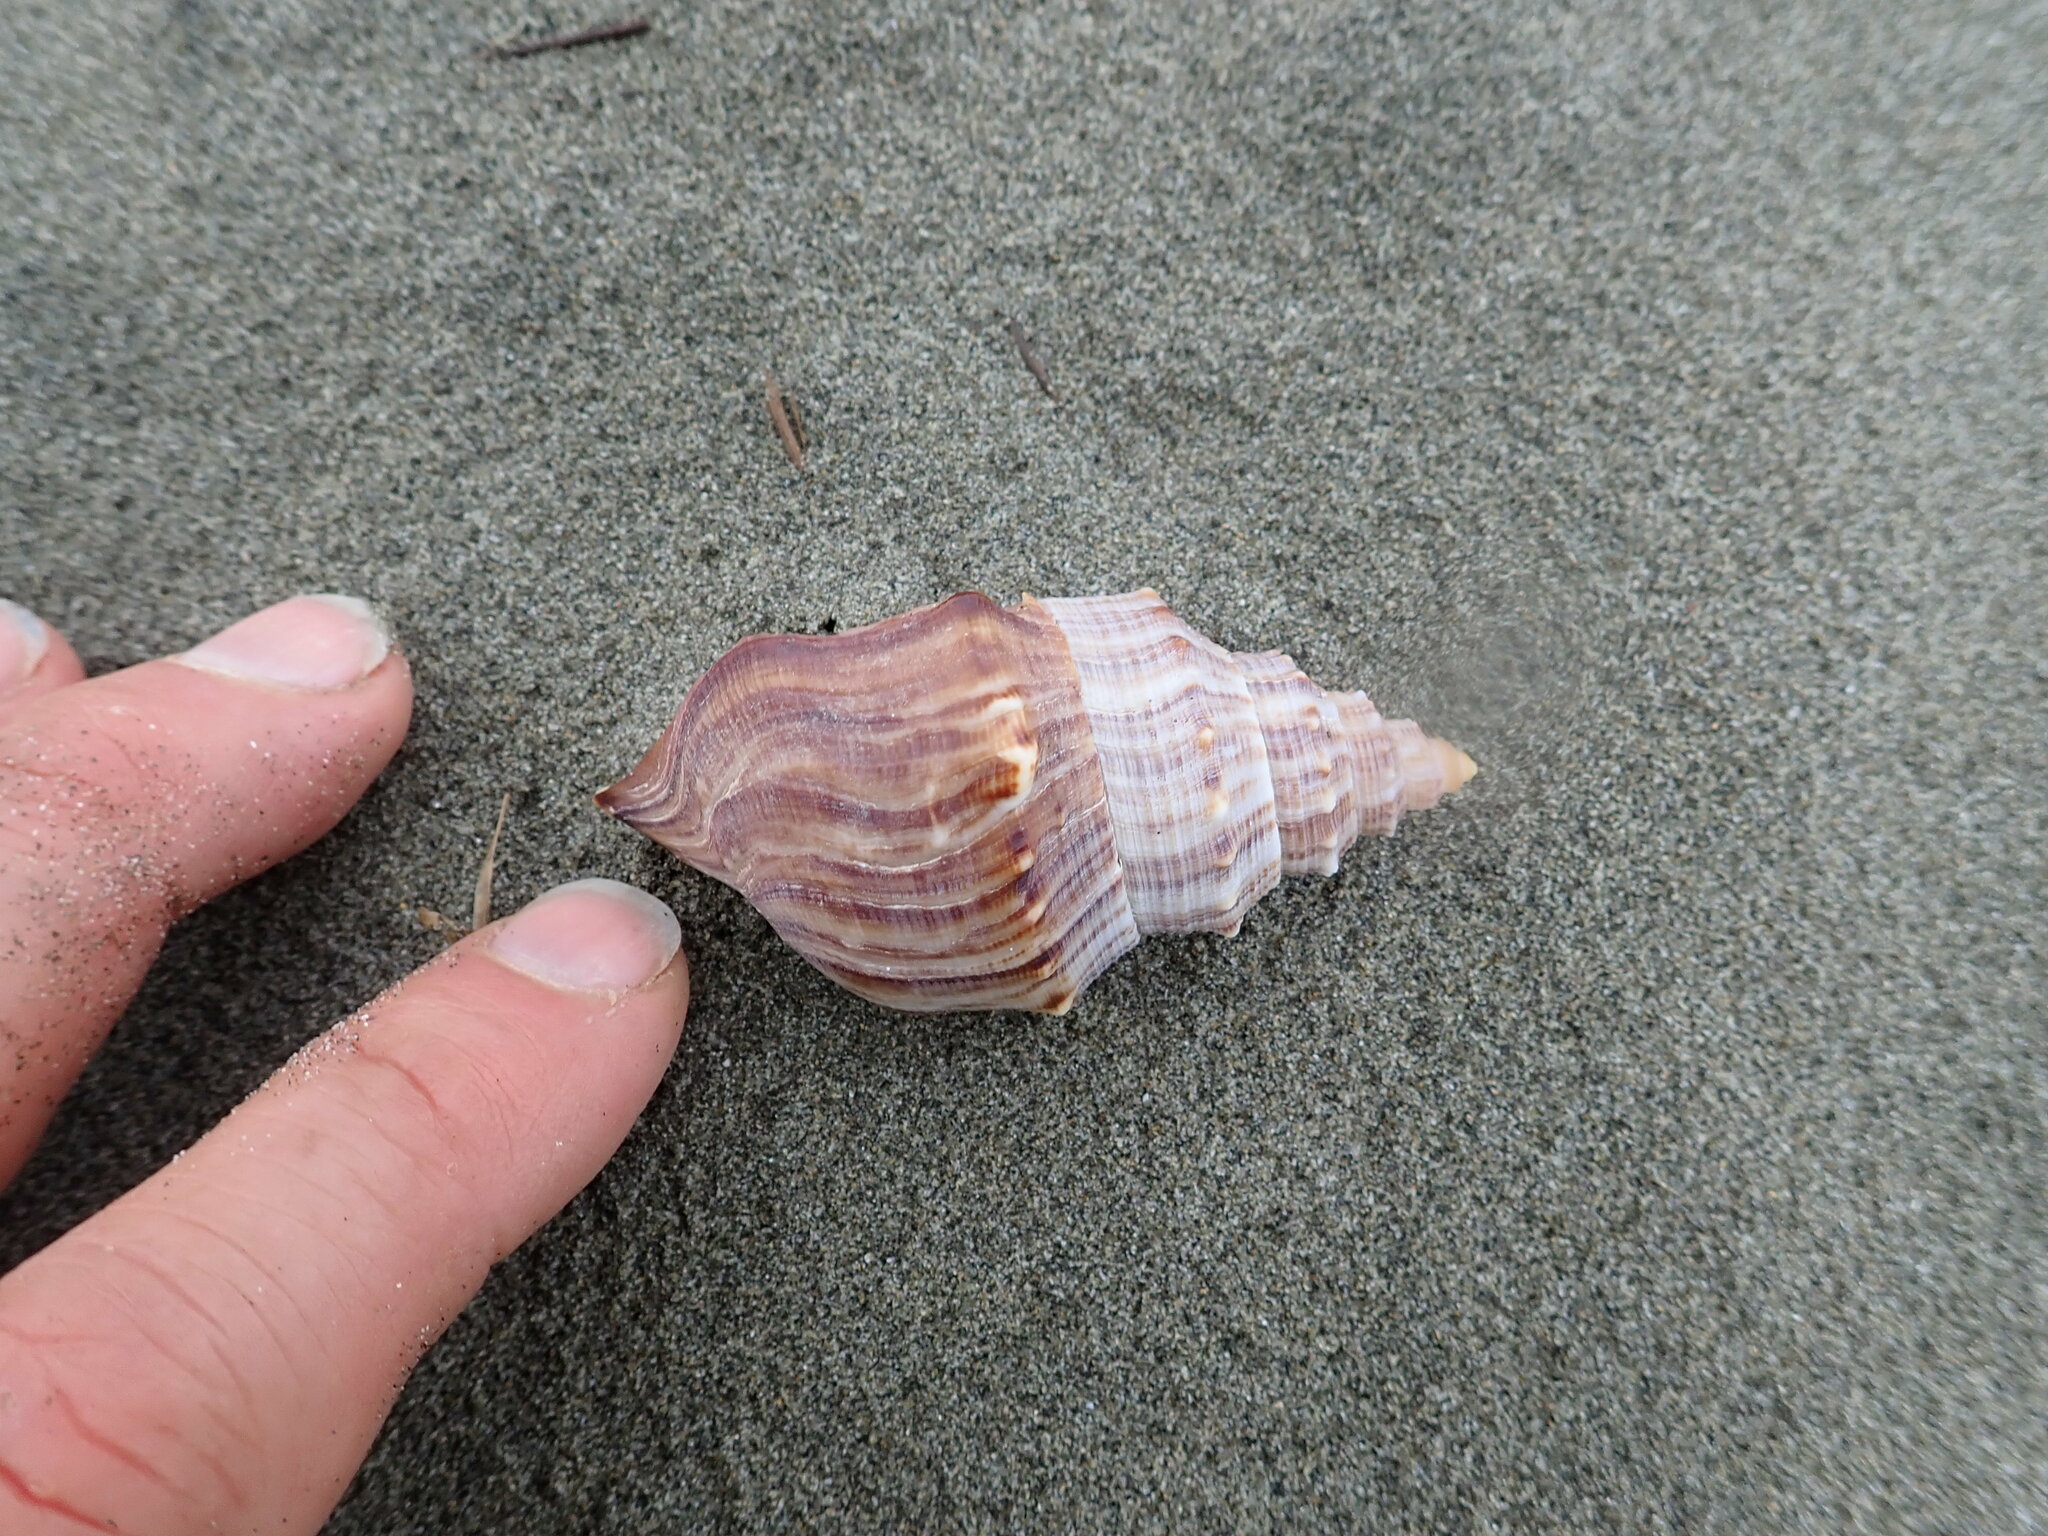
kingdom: Animalia
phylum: Mollusca
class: Gastropoda
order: Littorinimorpha
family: Struthiolariidae
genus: Struthiolaria
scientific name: Struthiolaria papulosa
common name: Large ostrich foot
